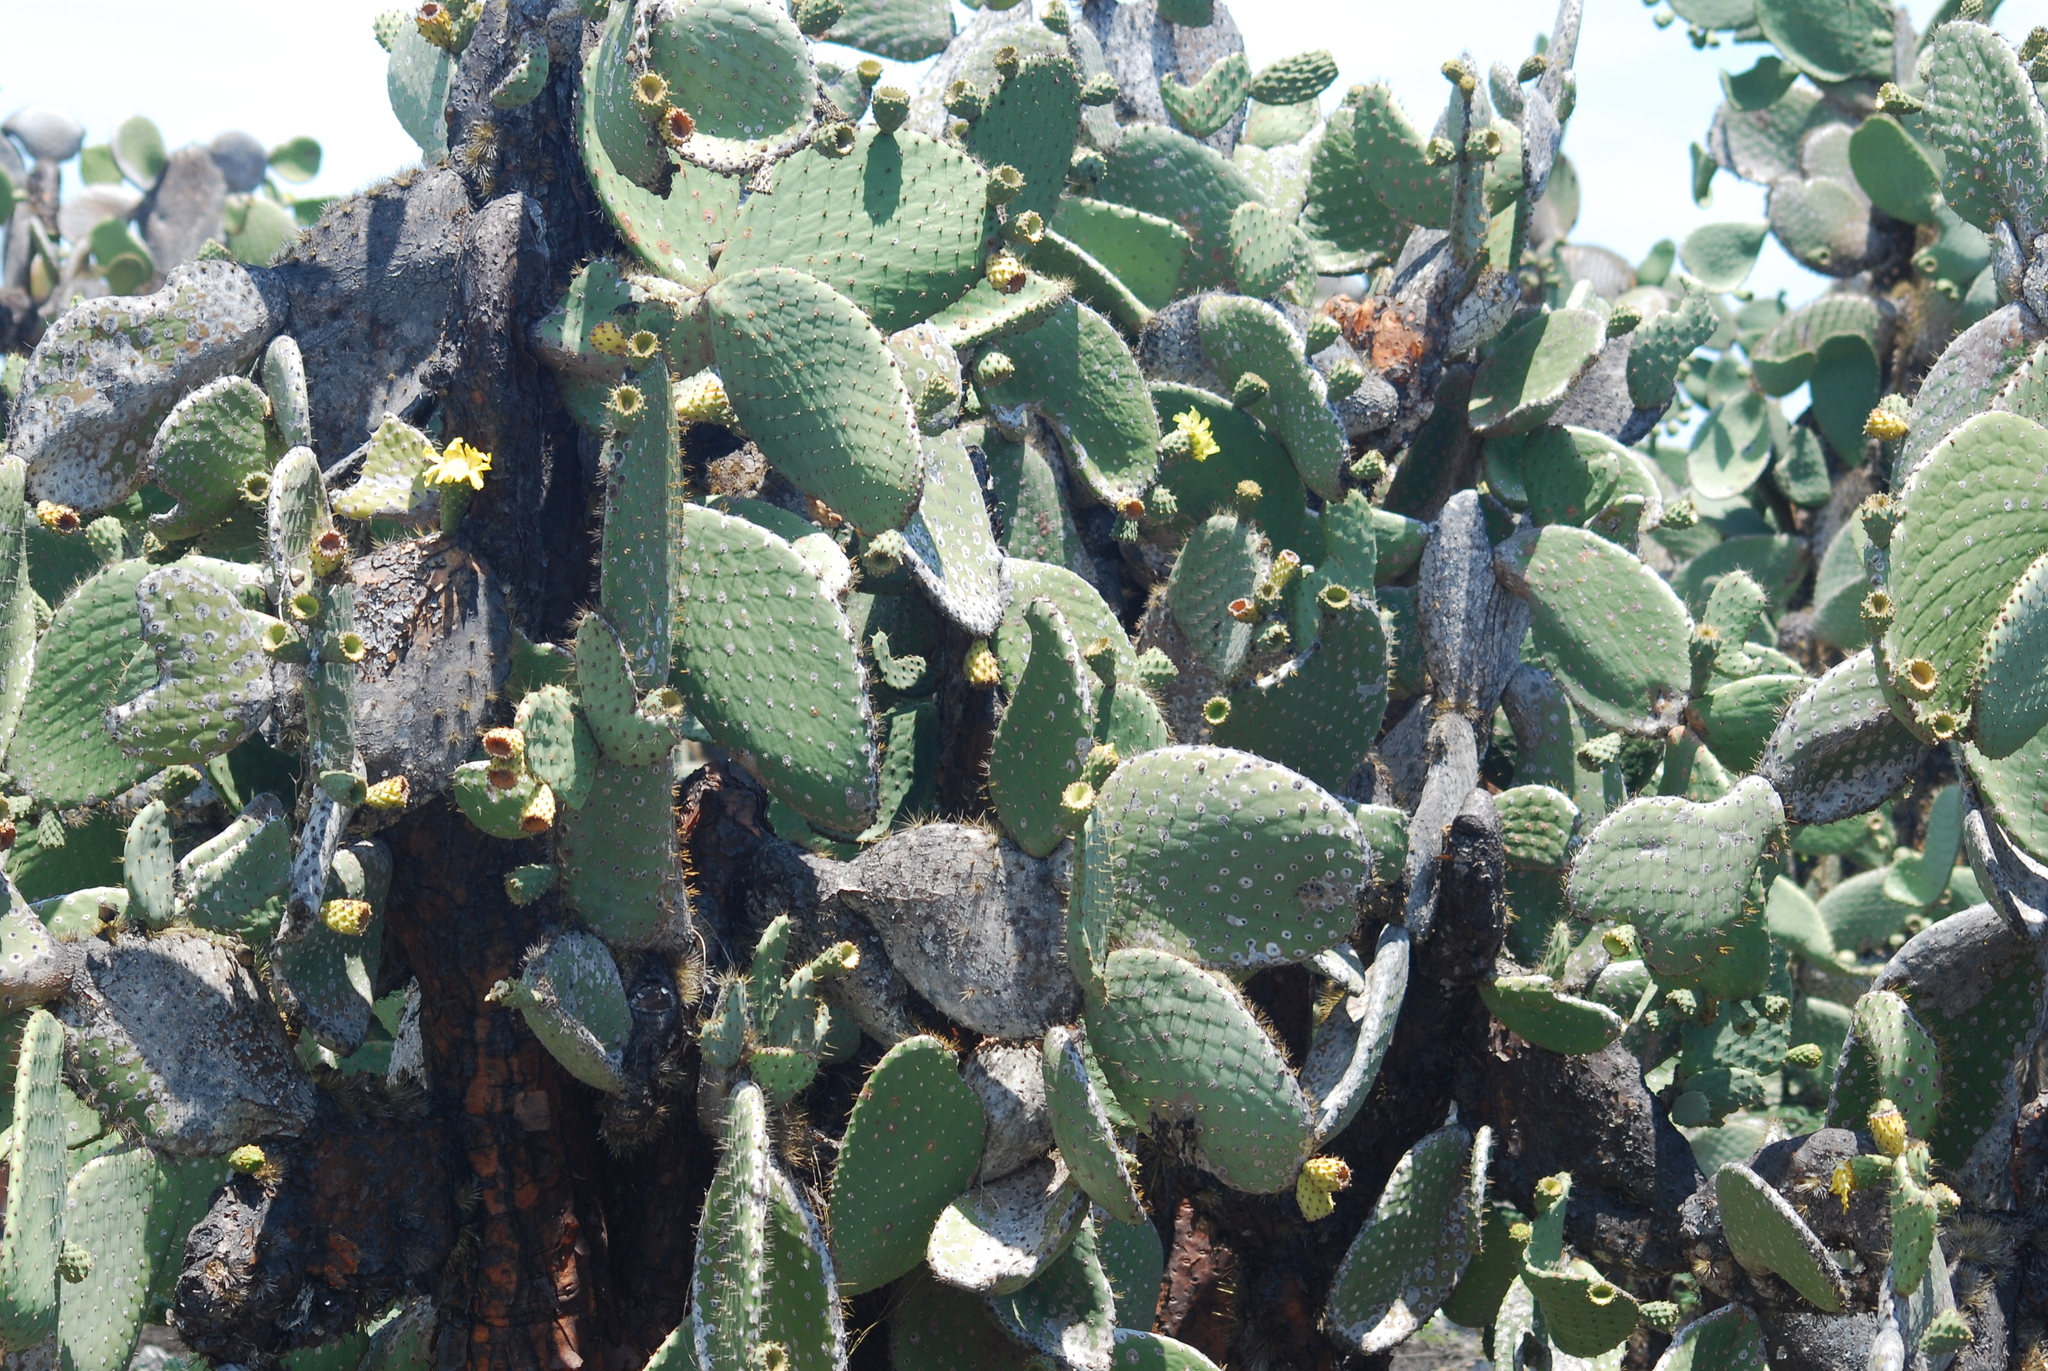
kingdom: Plantae
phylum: Tracheophyta
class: Magnoliopsida
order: Caryophyllales
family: Cactaceae
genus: Opuntia
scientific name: Opuntia galapageia
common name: Galápagos prickly pear
